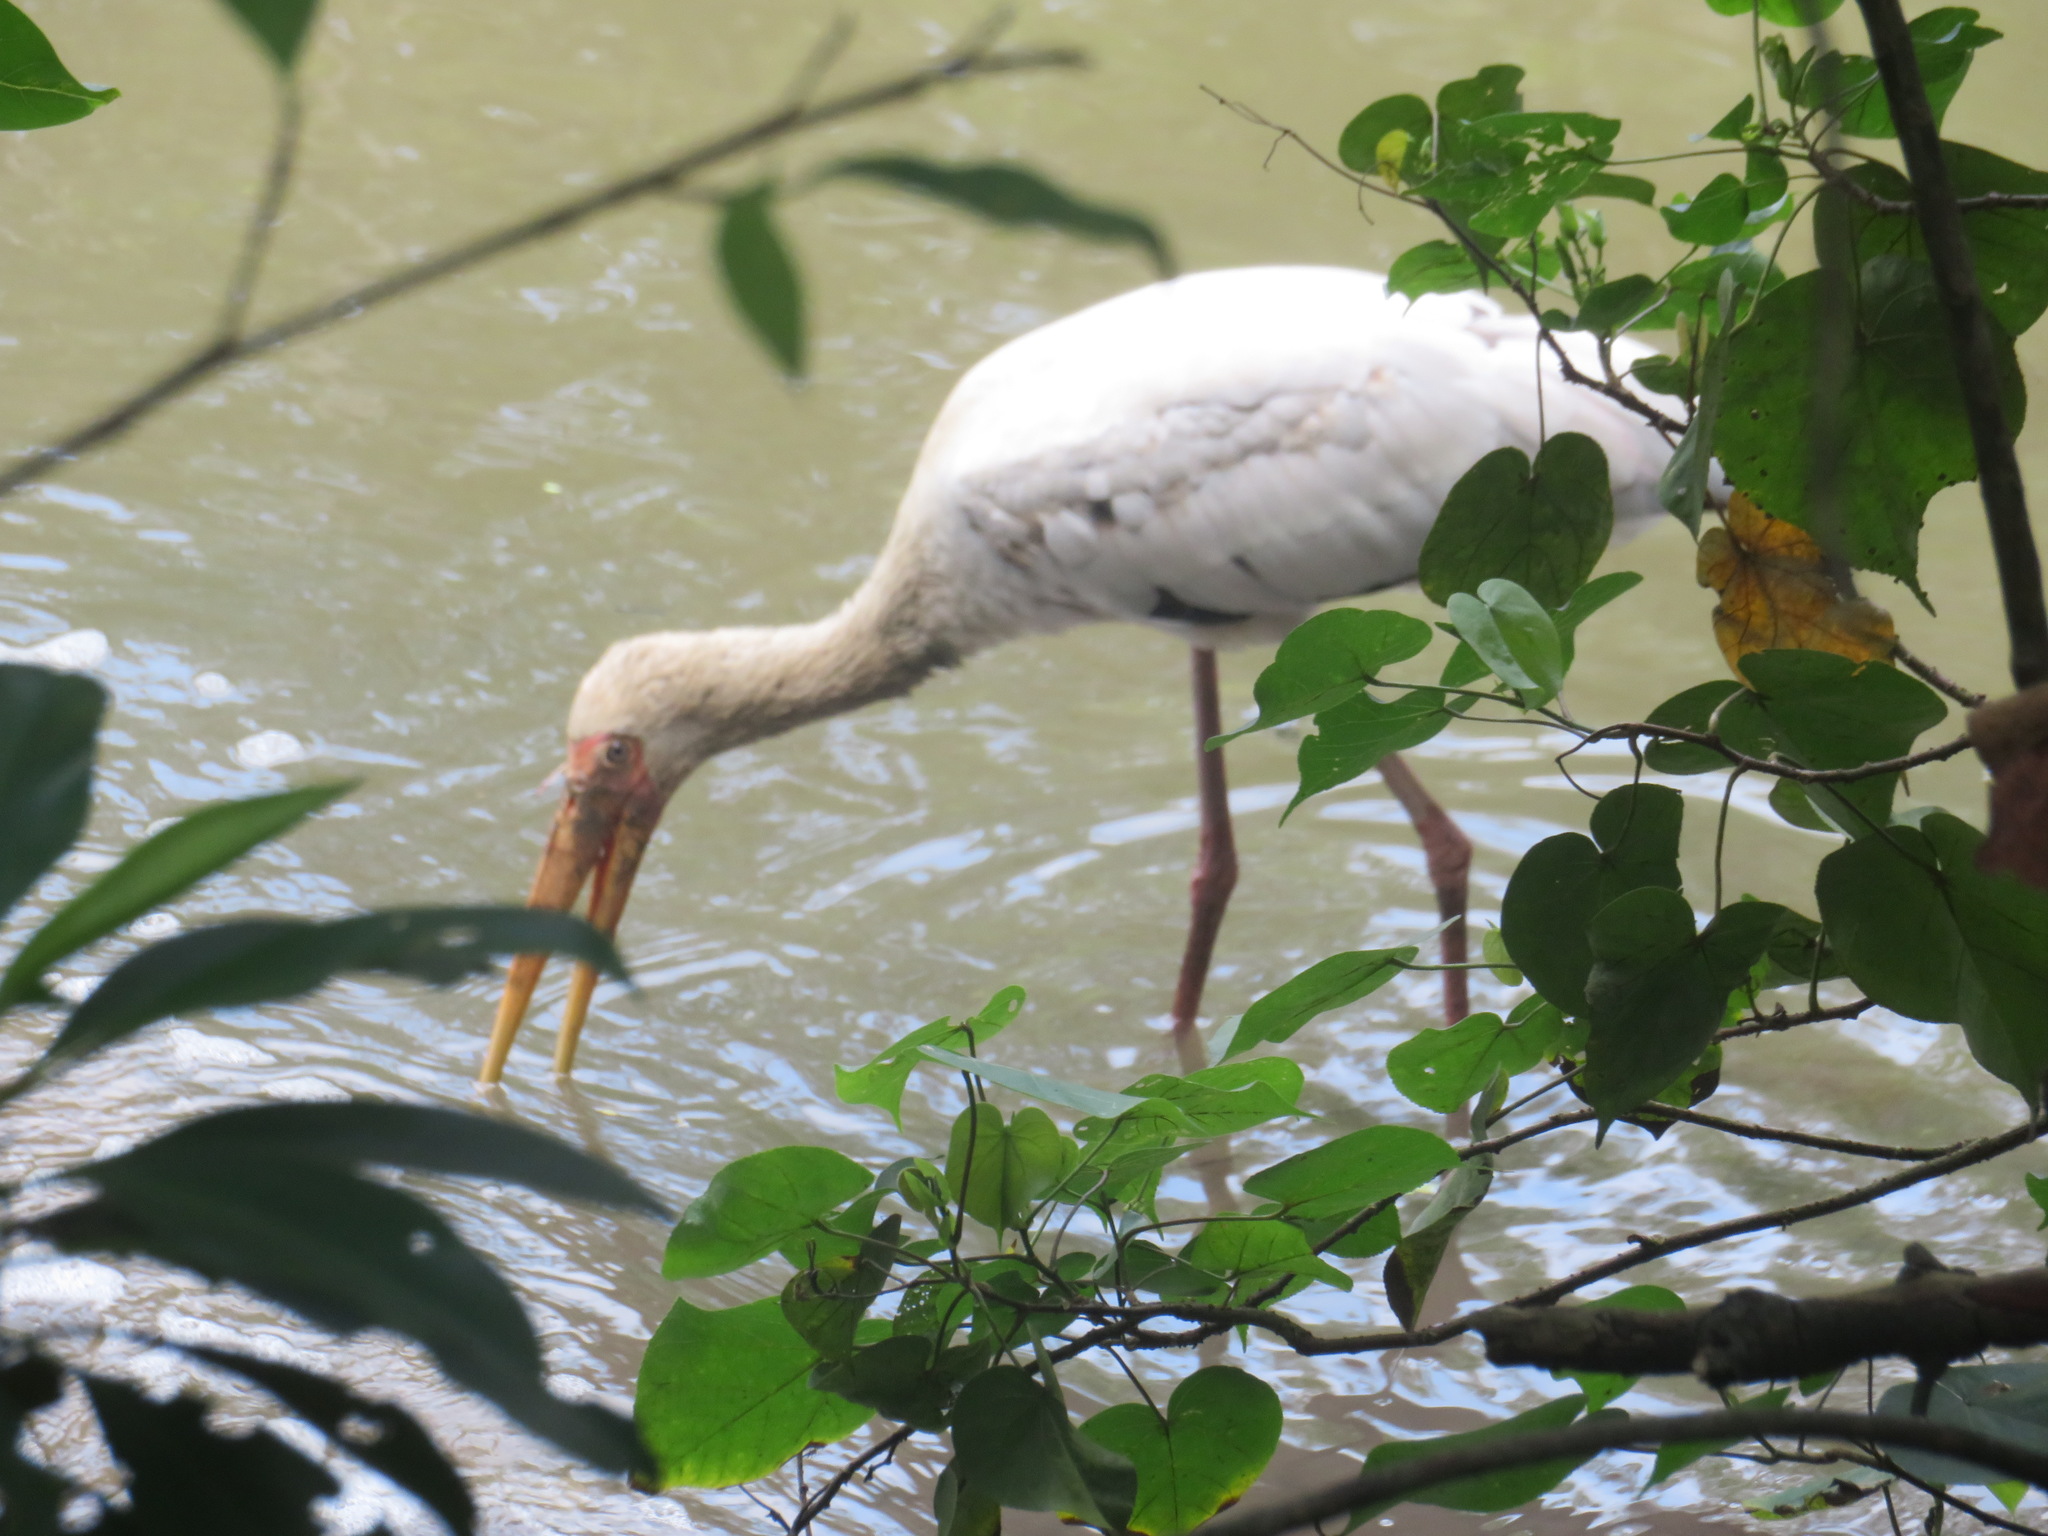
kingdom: Animalia
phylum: Chordata
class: Aves
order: Ciconiiformes
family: Ciconiidae
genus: Mycteria
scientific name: Mycteria leucocephala
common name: Painted stork
